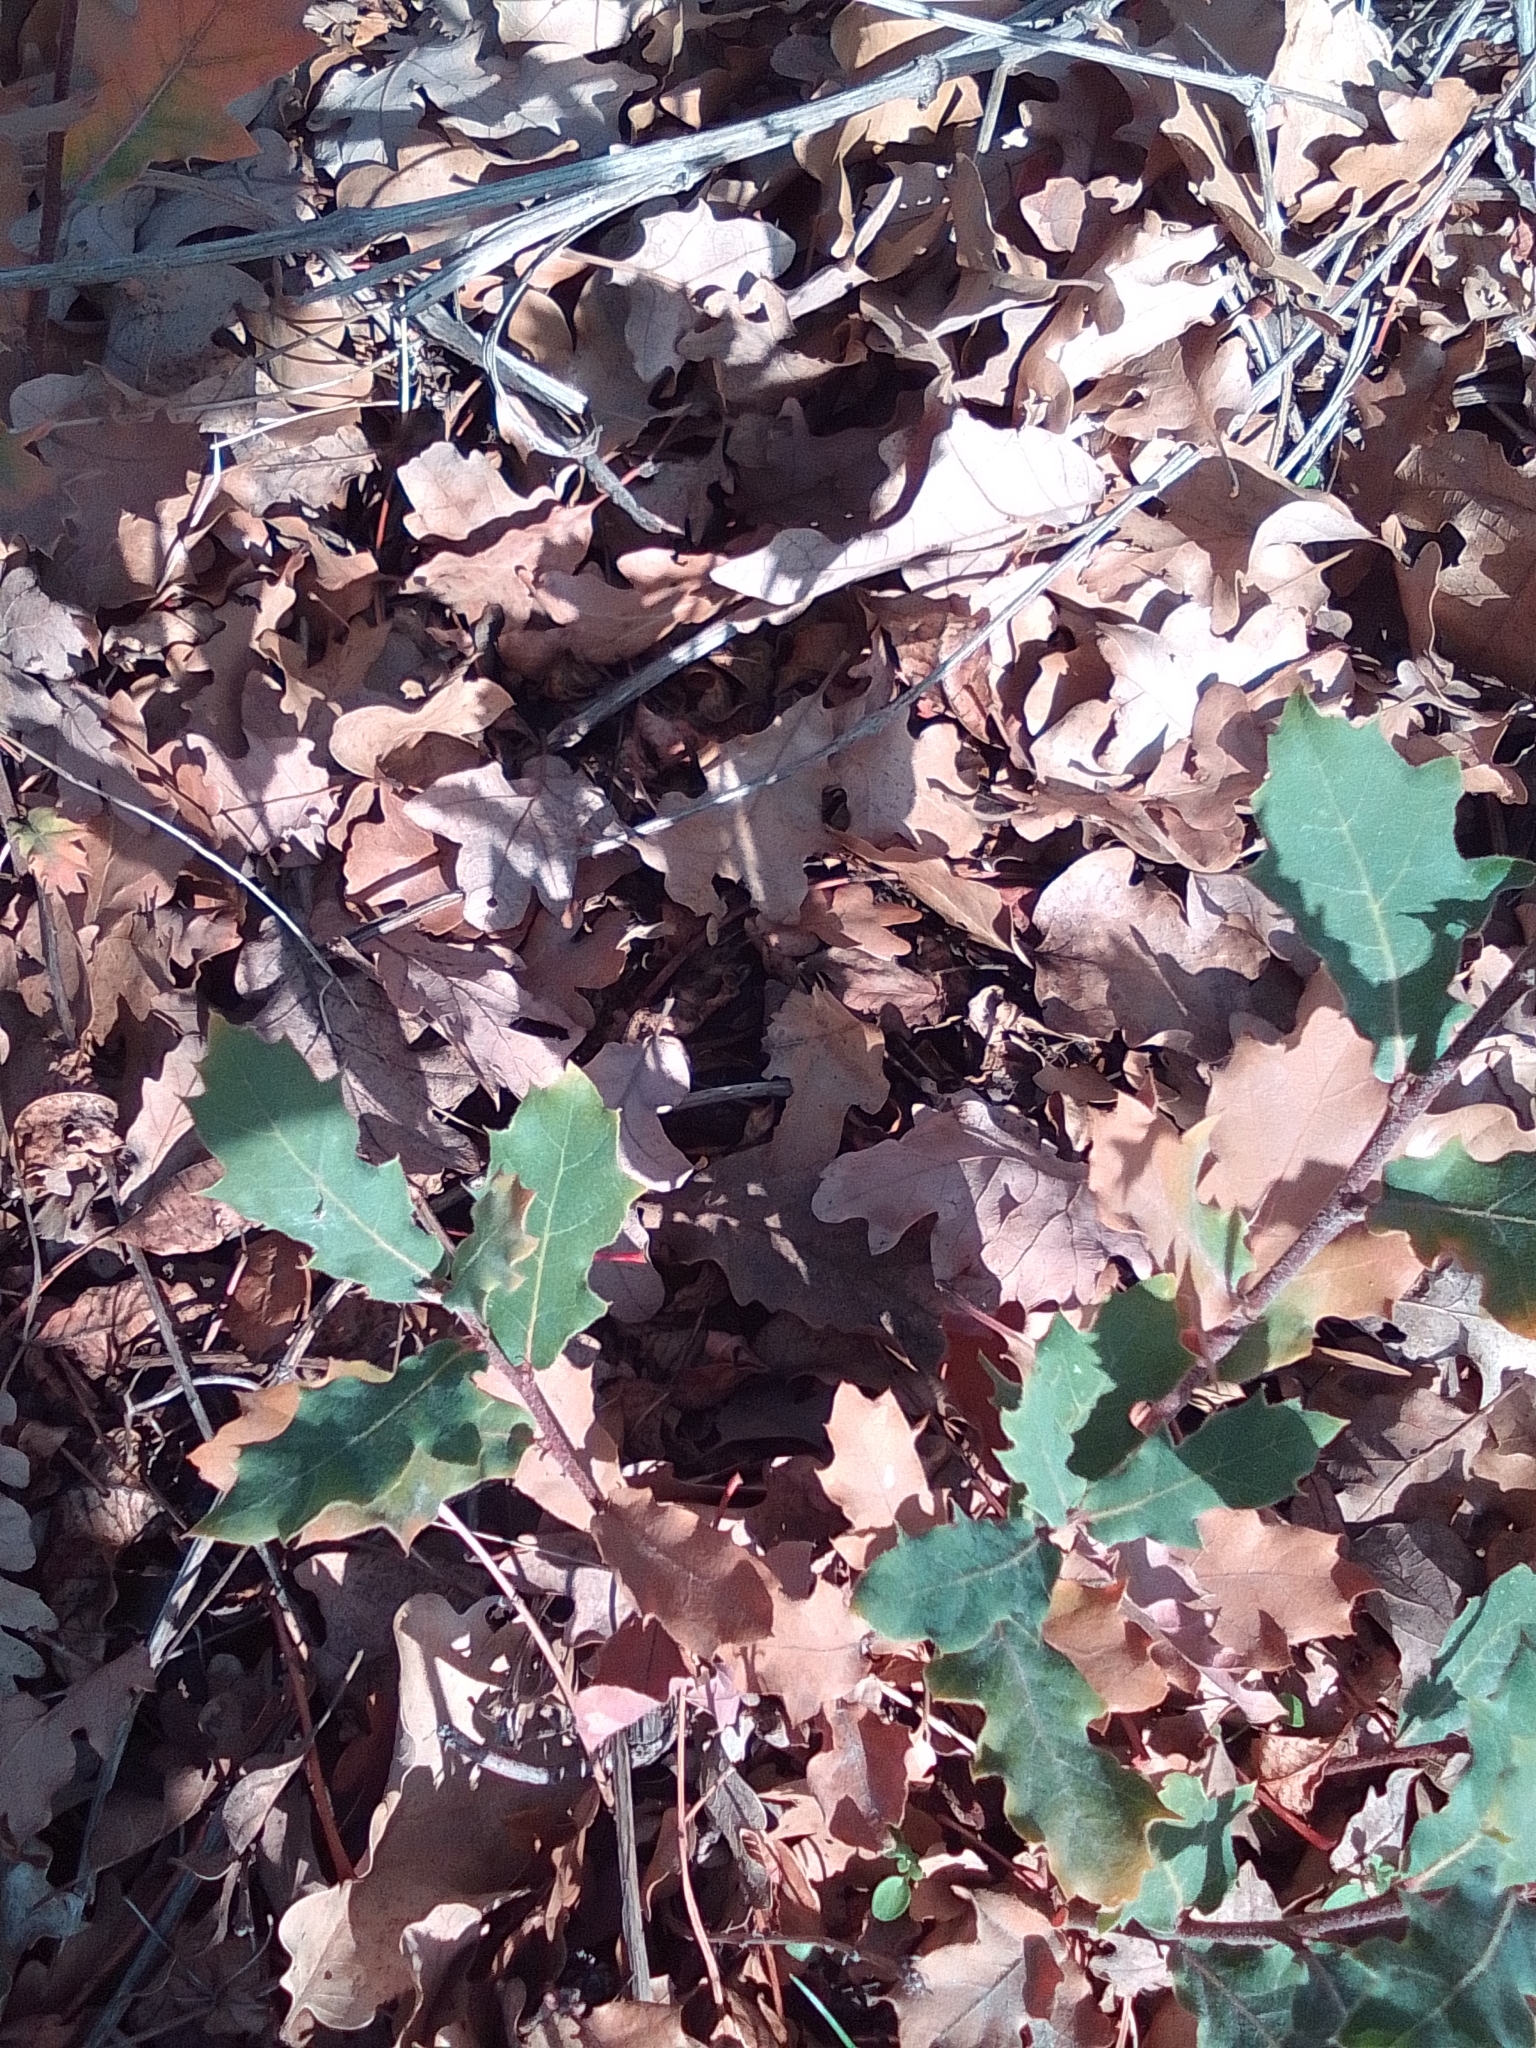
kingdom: Plantae
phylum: Tracheophyta
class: Magnoliopsida
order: Fagales
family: Fagaceae
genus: Quercus
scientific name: Quercus pubescens
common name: Downy oak
